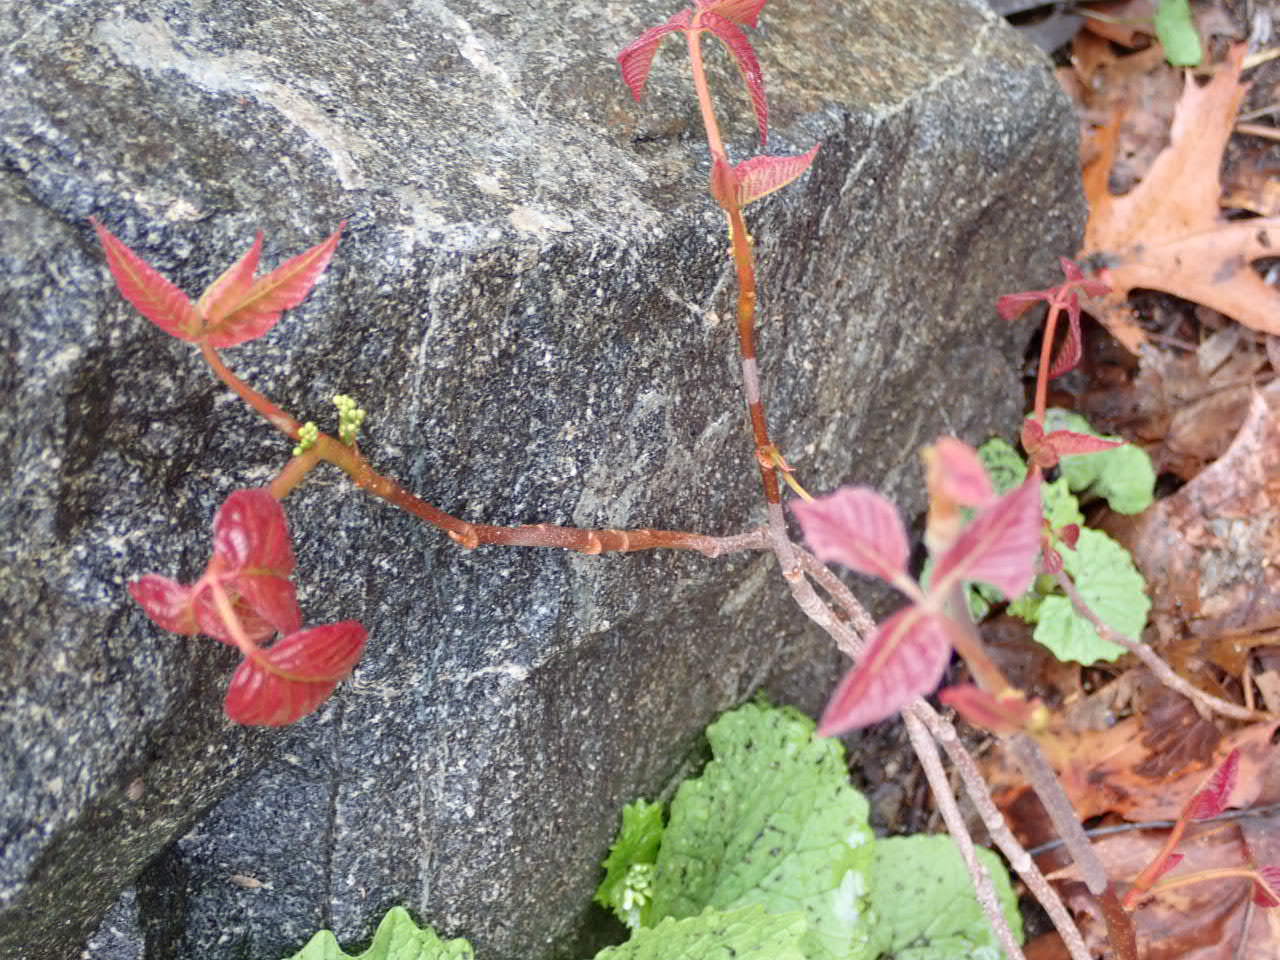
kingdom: Plantae
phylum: Tracheophyta
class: Magnoliopsida
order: Sapindales
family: Anacardiaceae
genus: Toxicodendron
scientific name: Toxicodendron radicans
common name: Poison ivy
